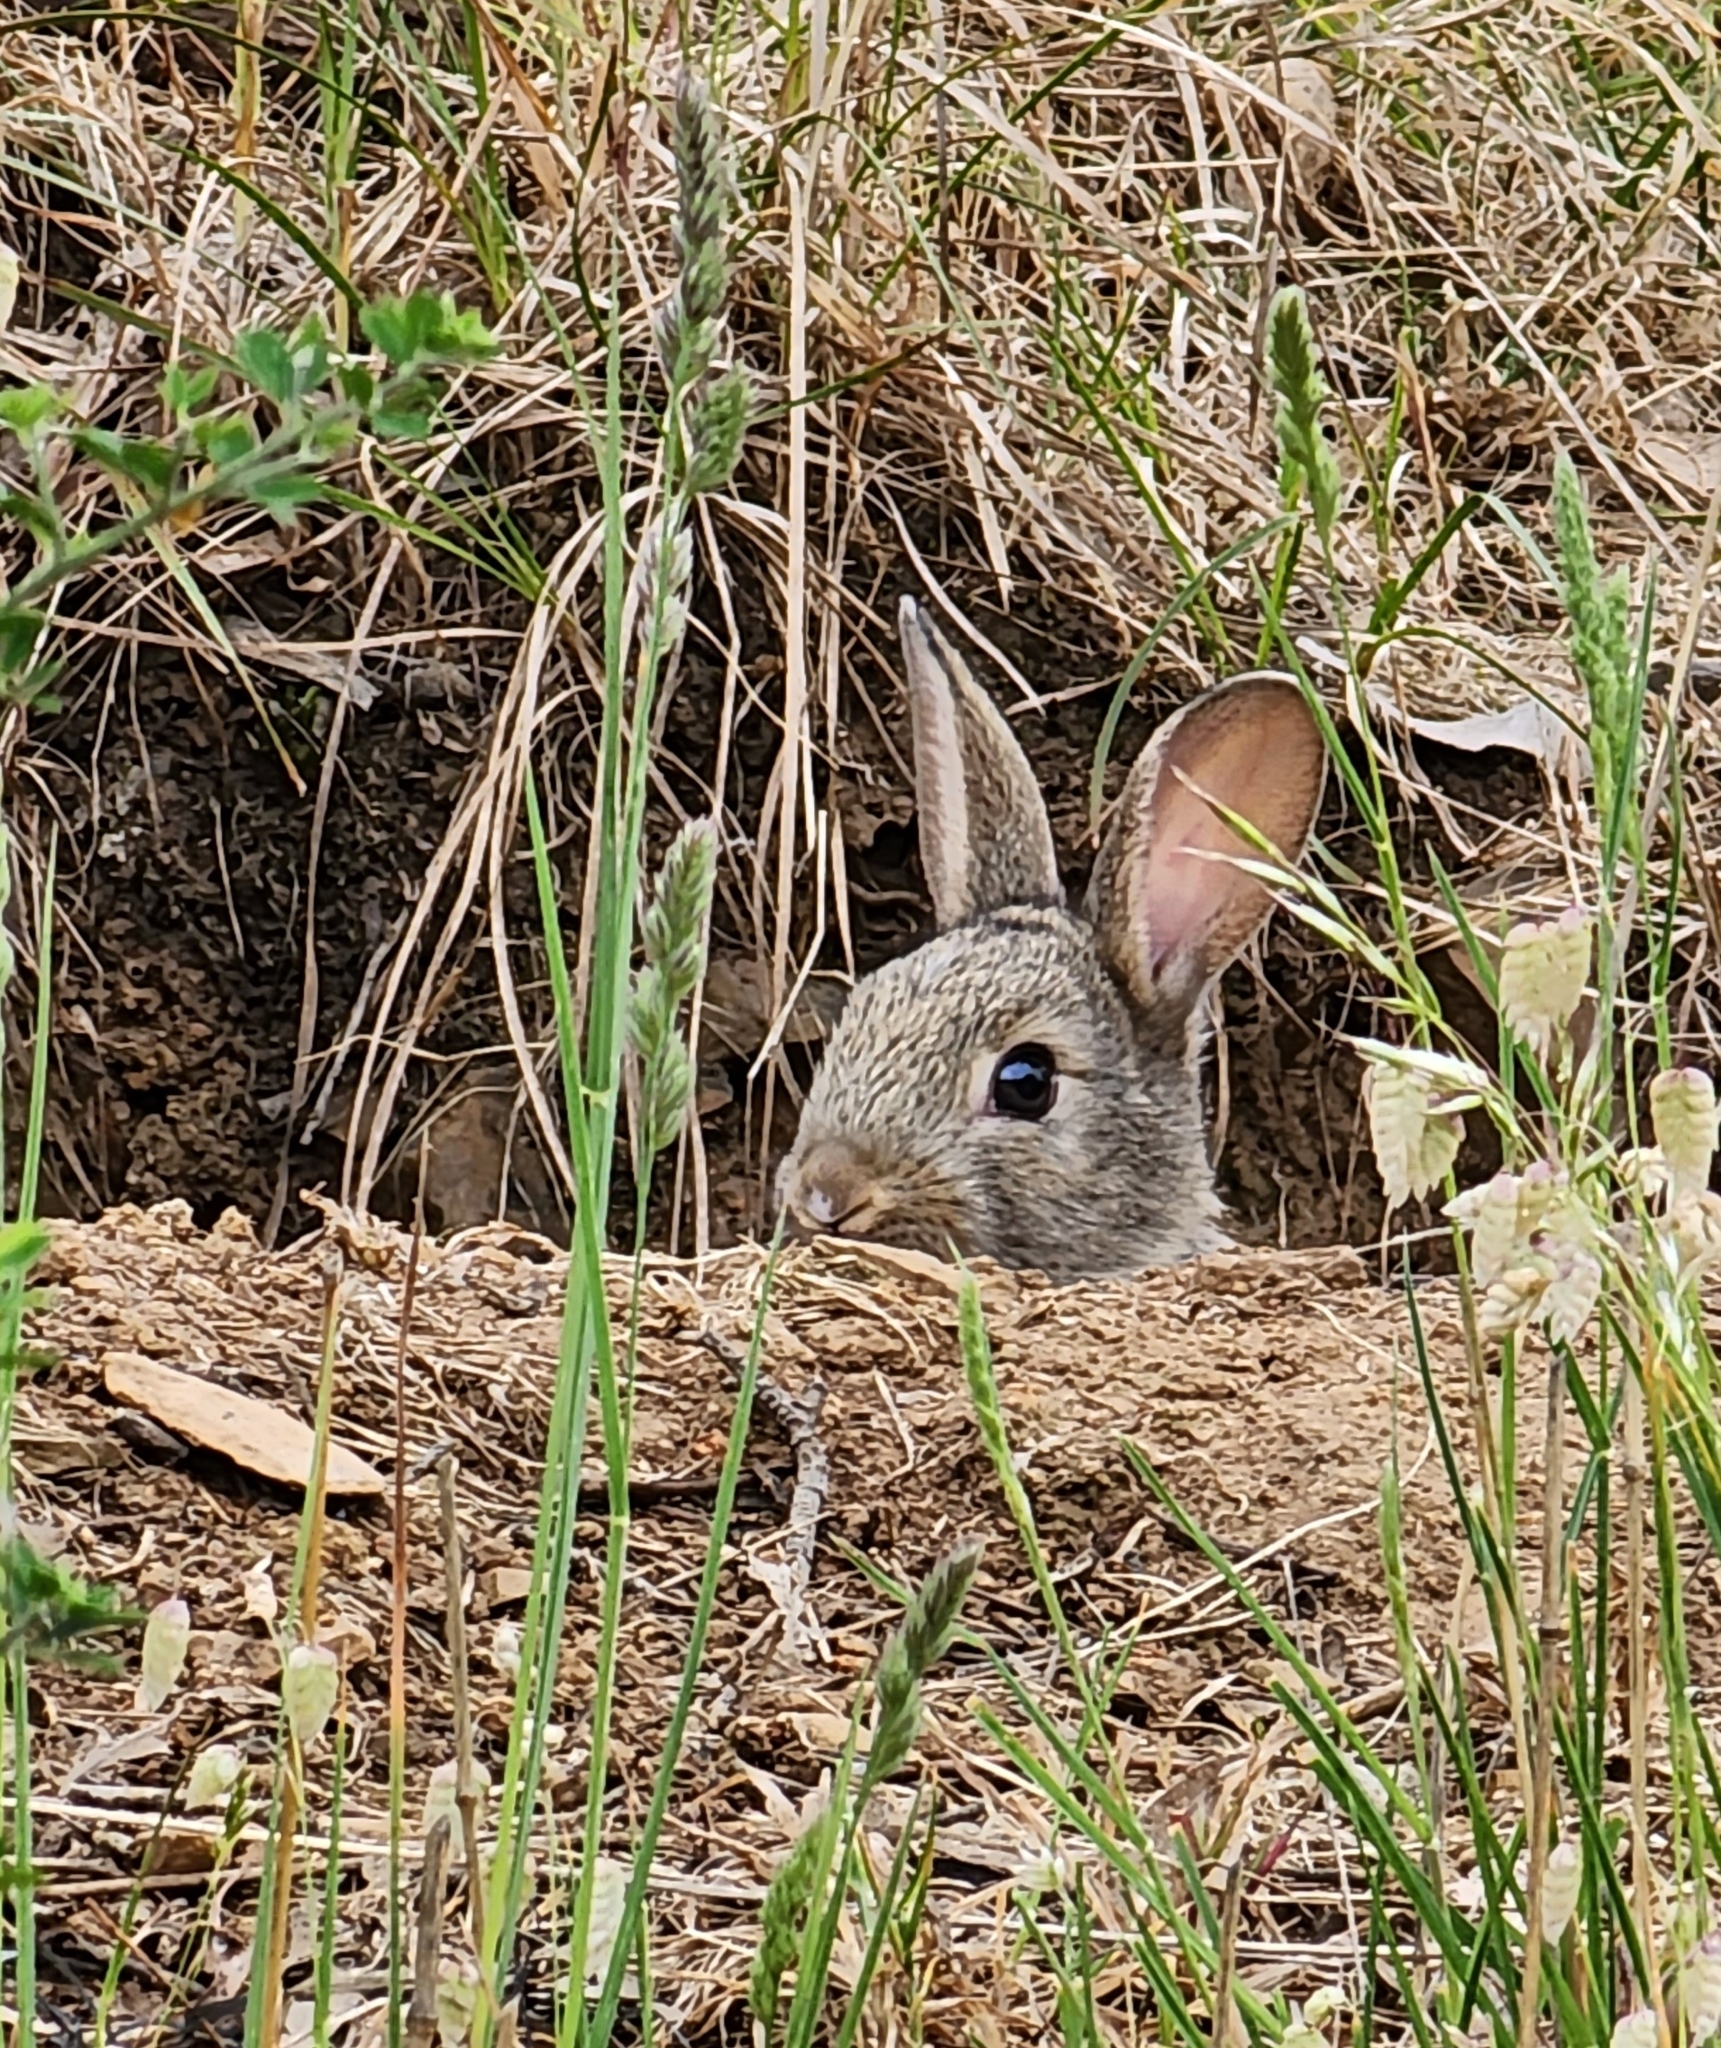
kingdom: Animalia
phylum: Chordata
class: Mammalia
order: Lagomorpha
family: Leporidae
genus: Oryctolagus
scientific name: Oryctolagus cuniculus
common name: European rabbit
